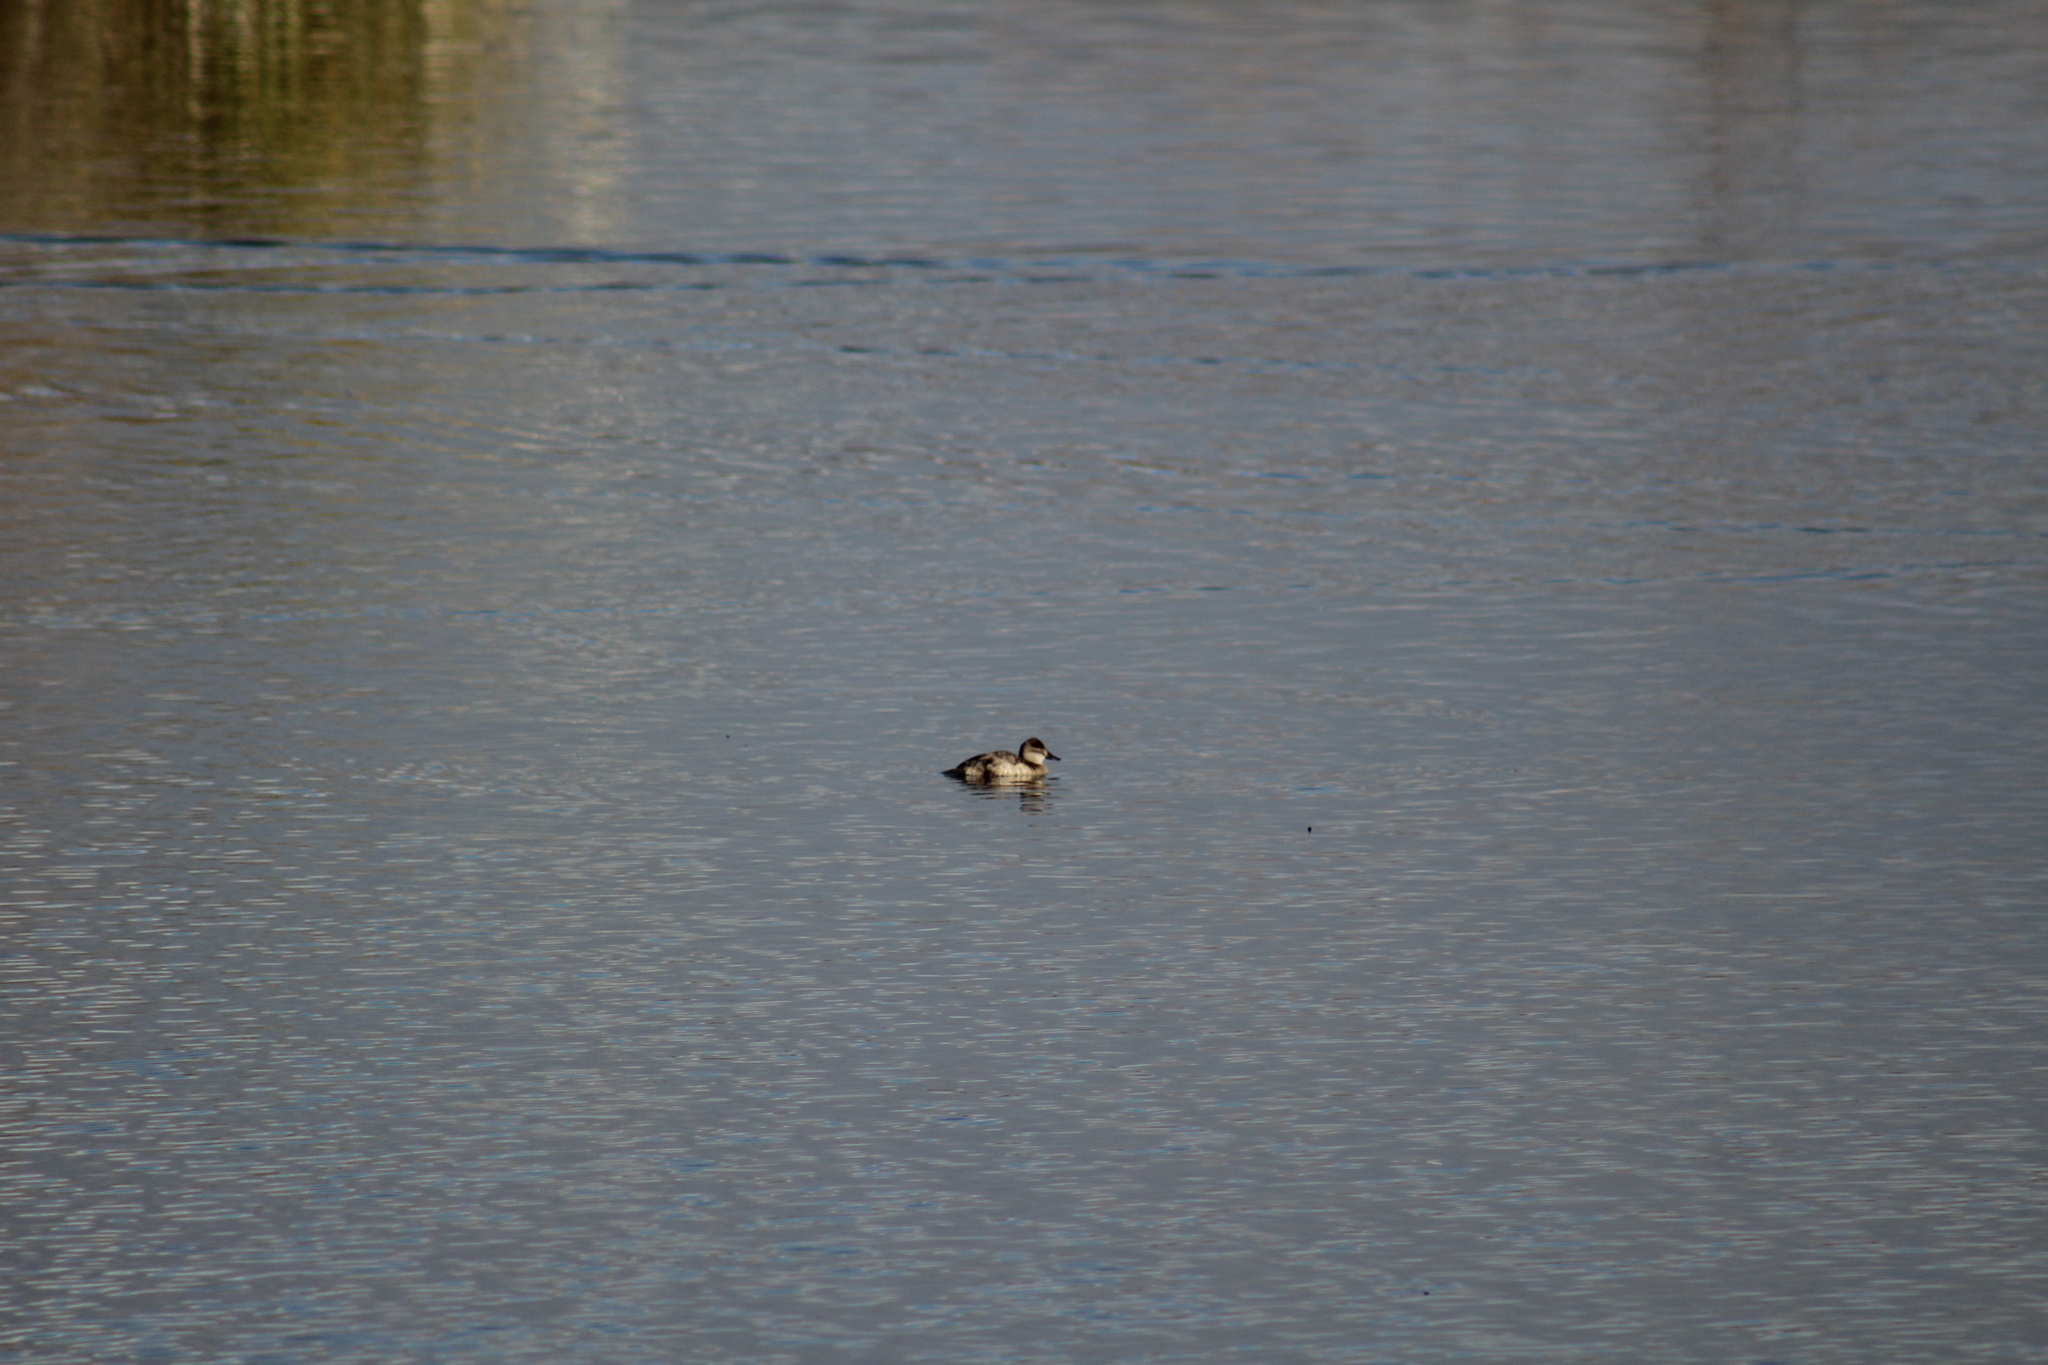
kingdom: Animalia
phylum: Chordata
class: Aves
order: Anseriformes
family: Anatidae
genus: Oxyura
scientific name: Oxyura jamaicensis
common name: Ruddy duck
